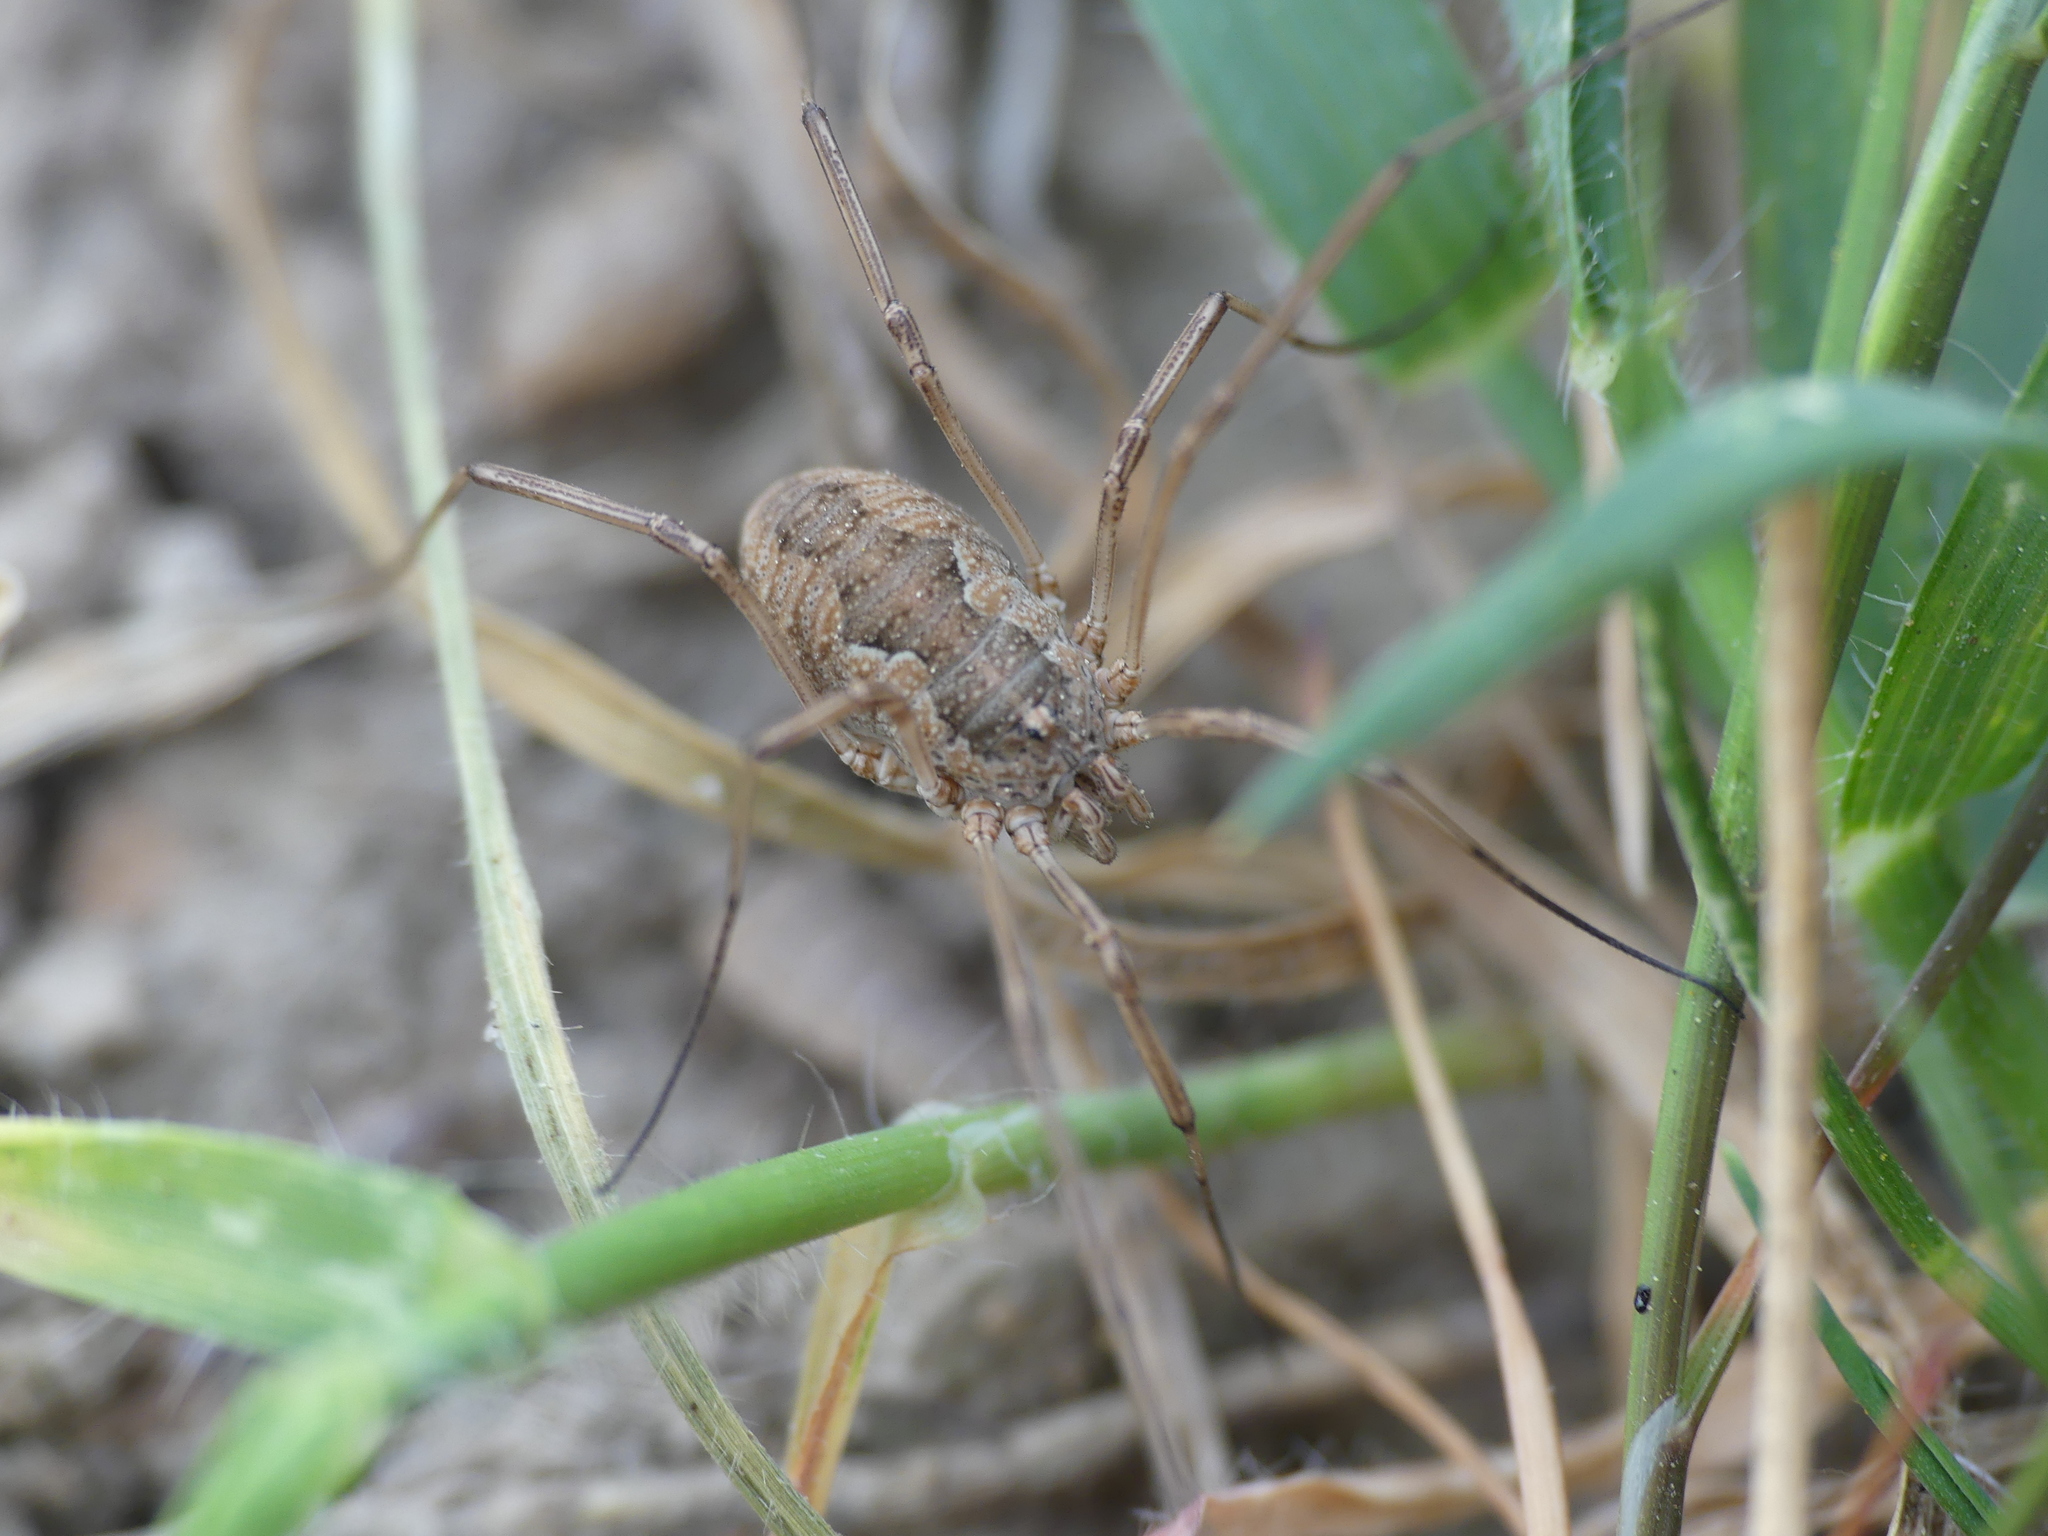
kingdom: Animalia
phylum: Arthropoda
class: Arachnida
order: Opiliones
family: Phalangiidae
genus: Phalangium
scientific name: Phalangium opilio
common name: Daddy longleg
